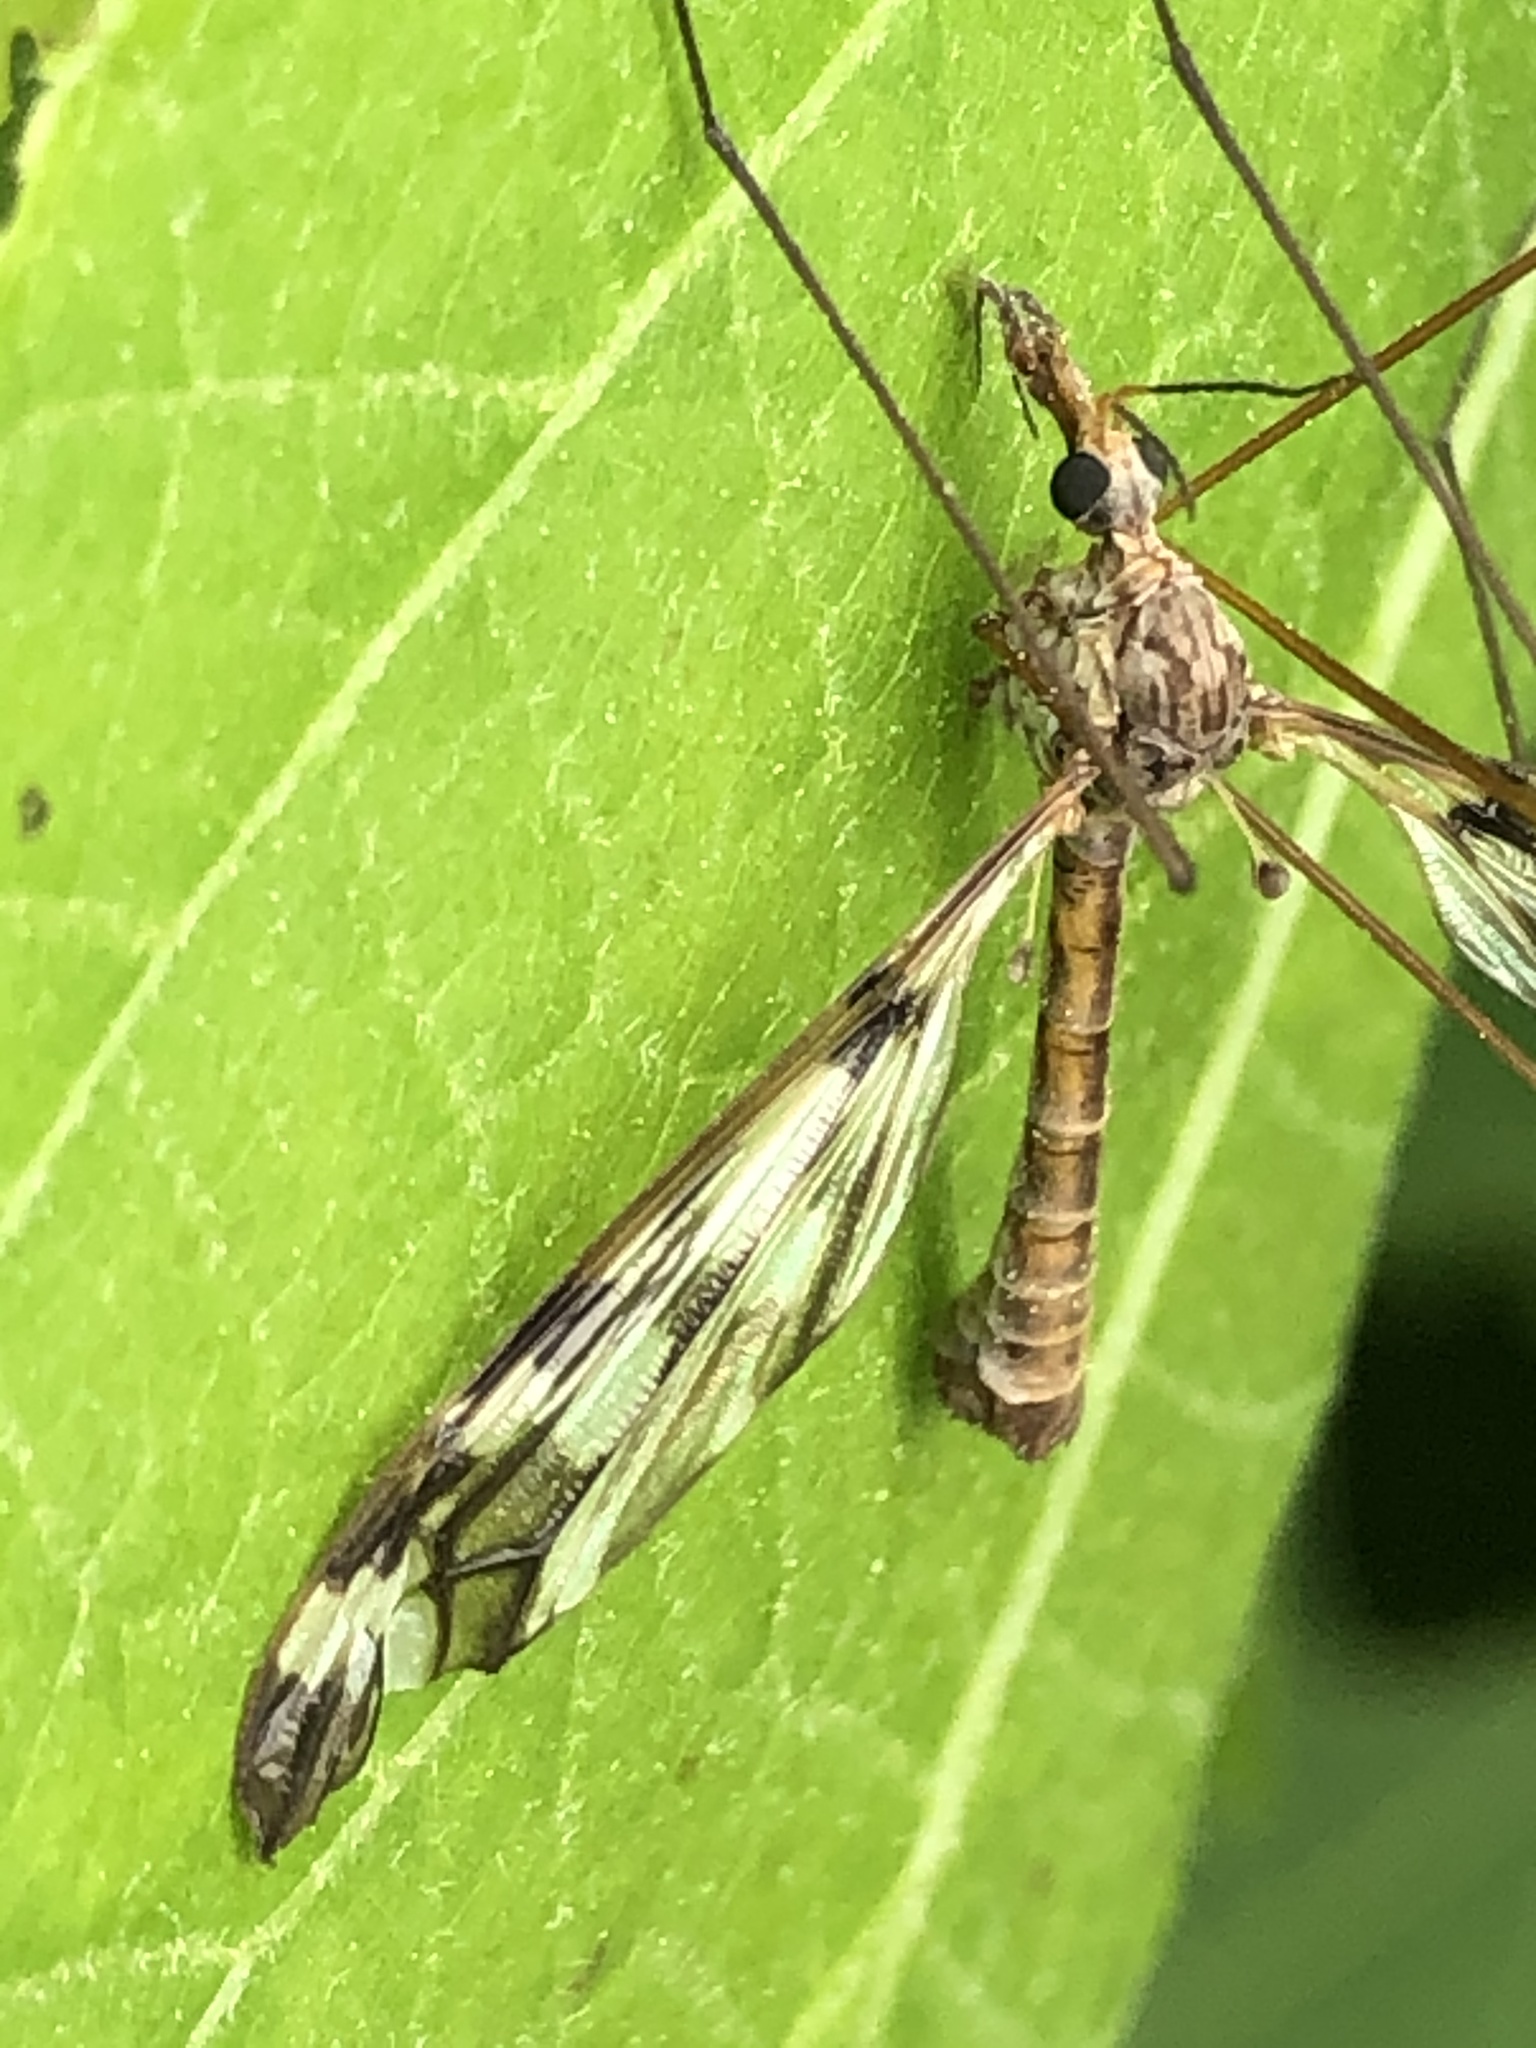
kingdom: Animalia
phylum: Arthropoda
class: Insecta
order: Diptera
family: Tipulidae
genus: Tipula
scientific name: Tipula trivittata
